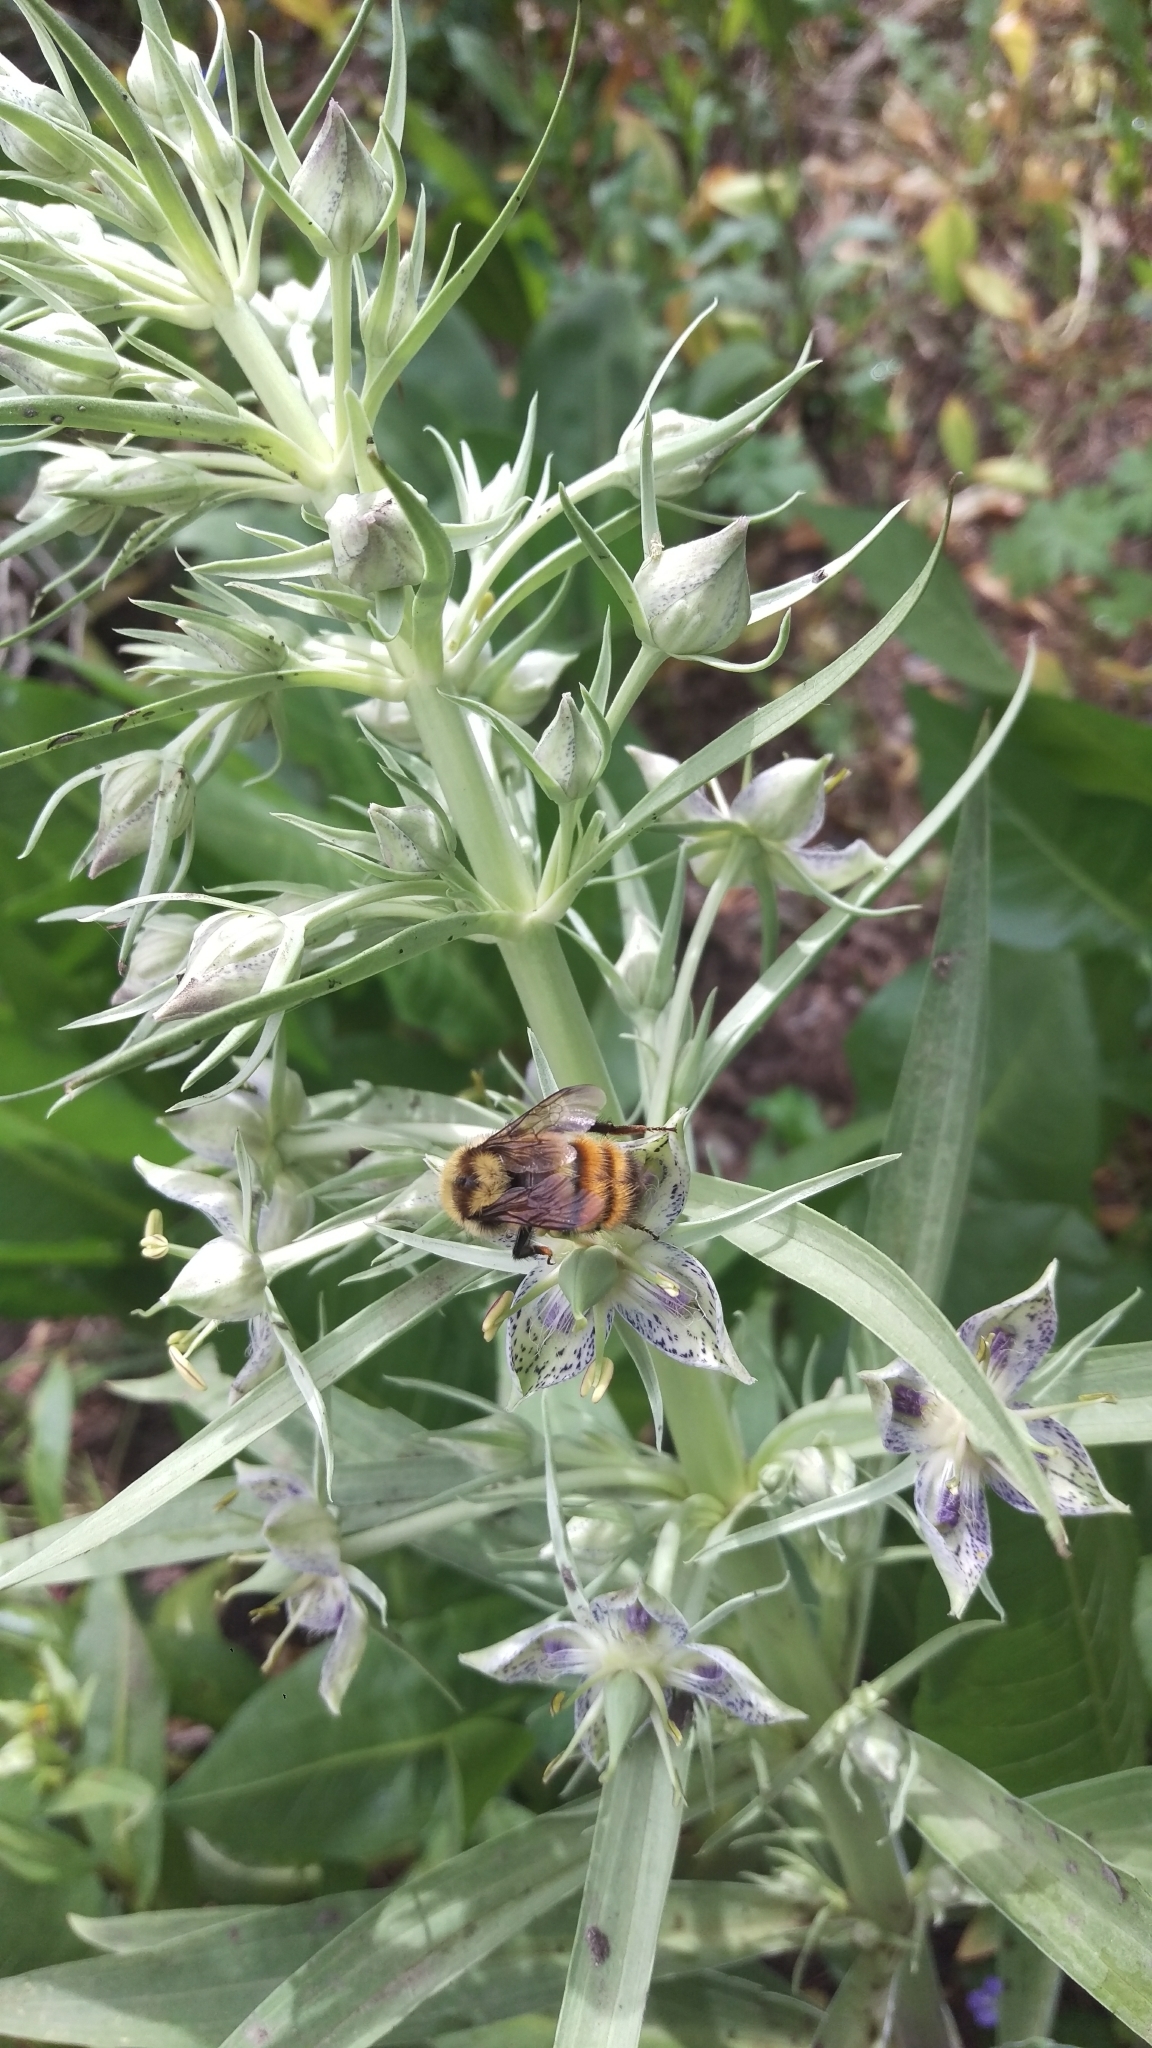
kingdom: Animalia
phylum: Arthropoda
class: Insecta
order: Hymenoptera
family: Apidae
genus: Bombus
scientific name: Bombus centralis
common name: Central bumble bee
